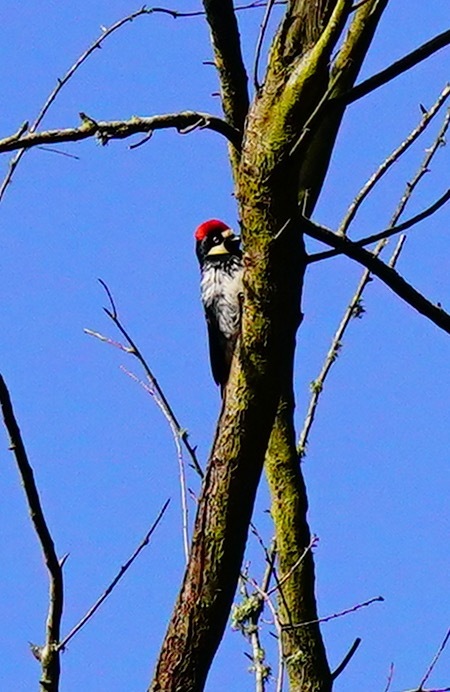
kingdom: Animalia
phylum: Chordata
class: Aves
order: Piciformes
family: Picidae
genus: Melanerpes
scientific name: Melanerpes formicivorus
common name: Acorn woodpecker
